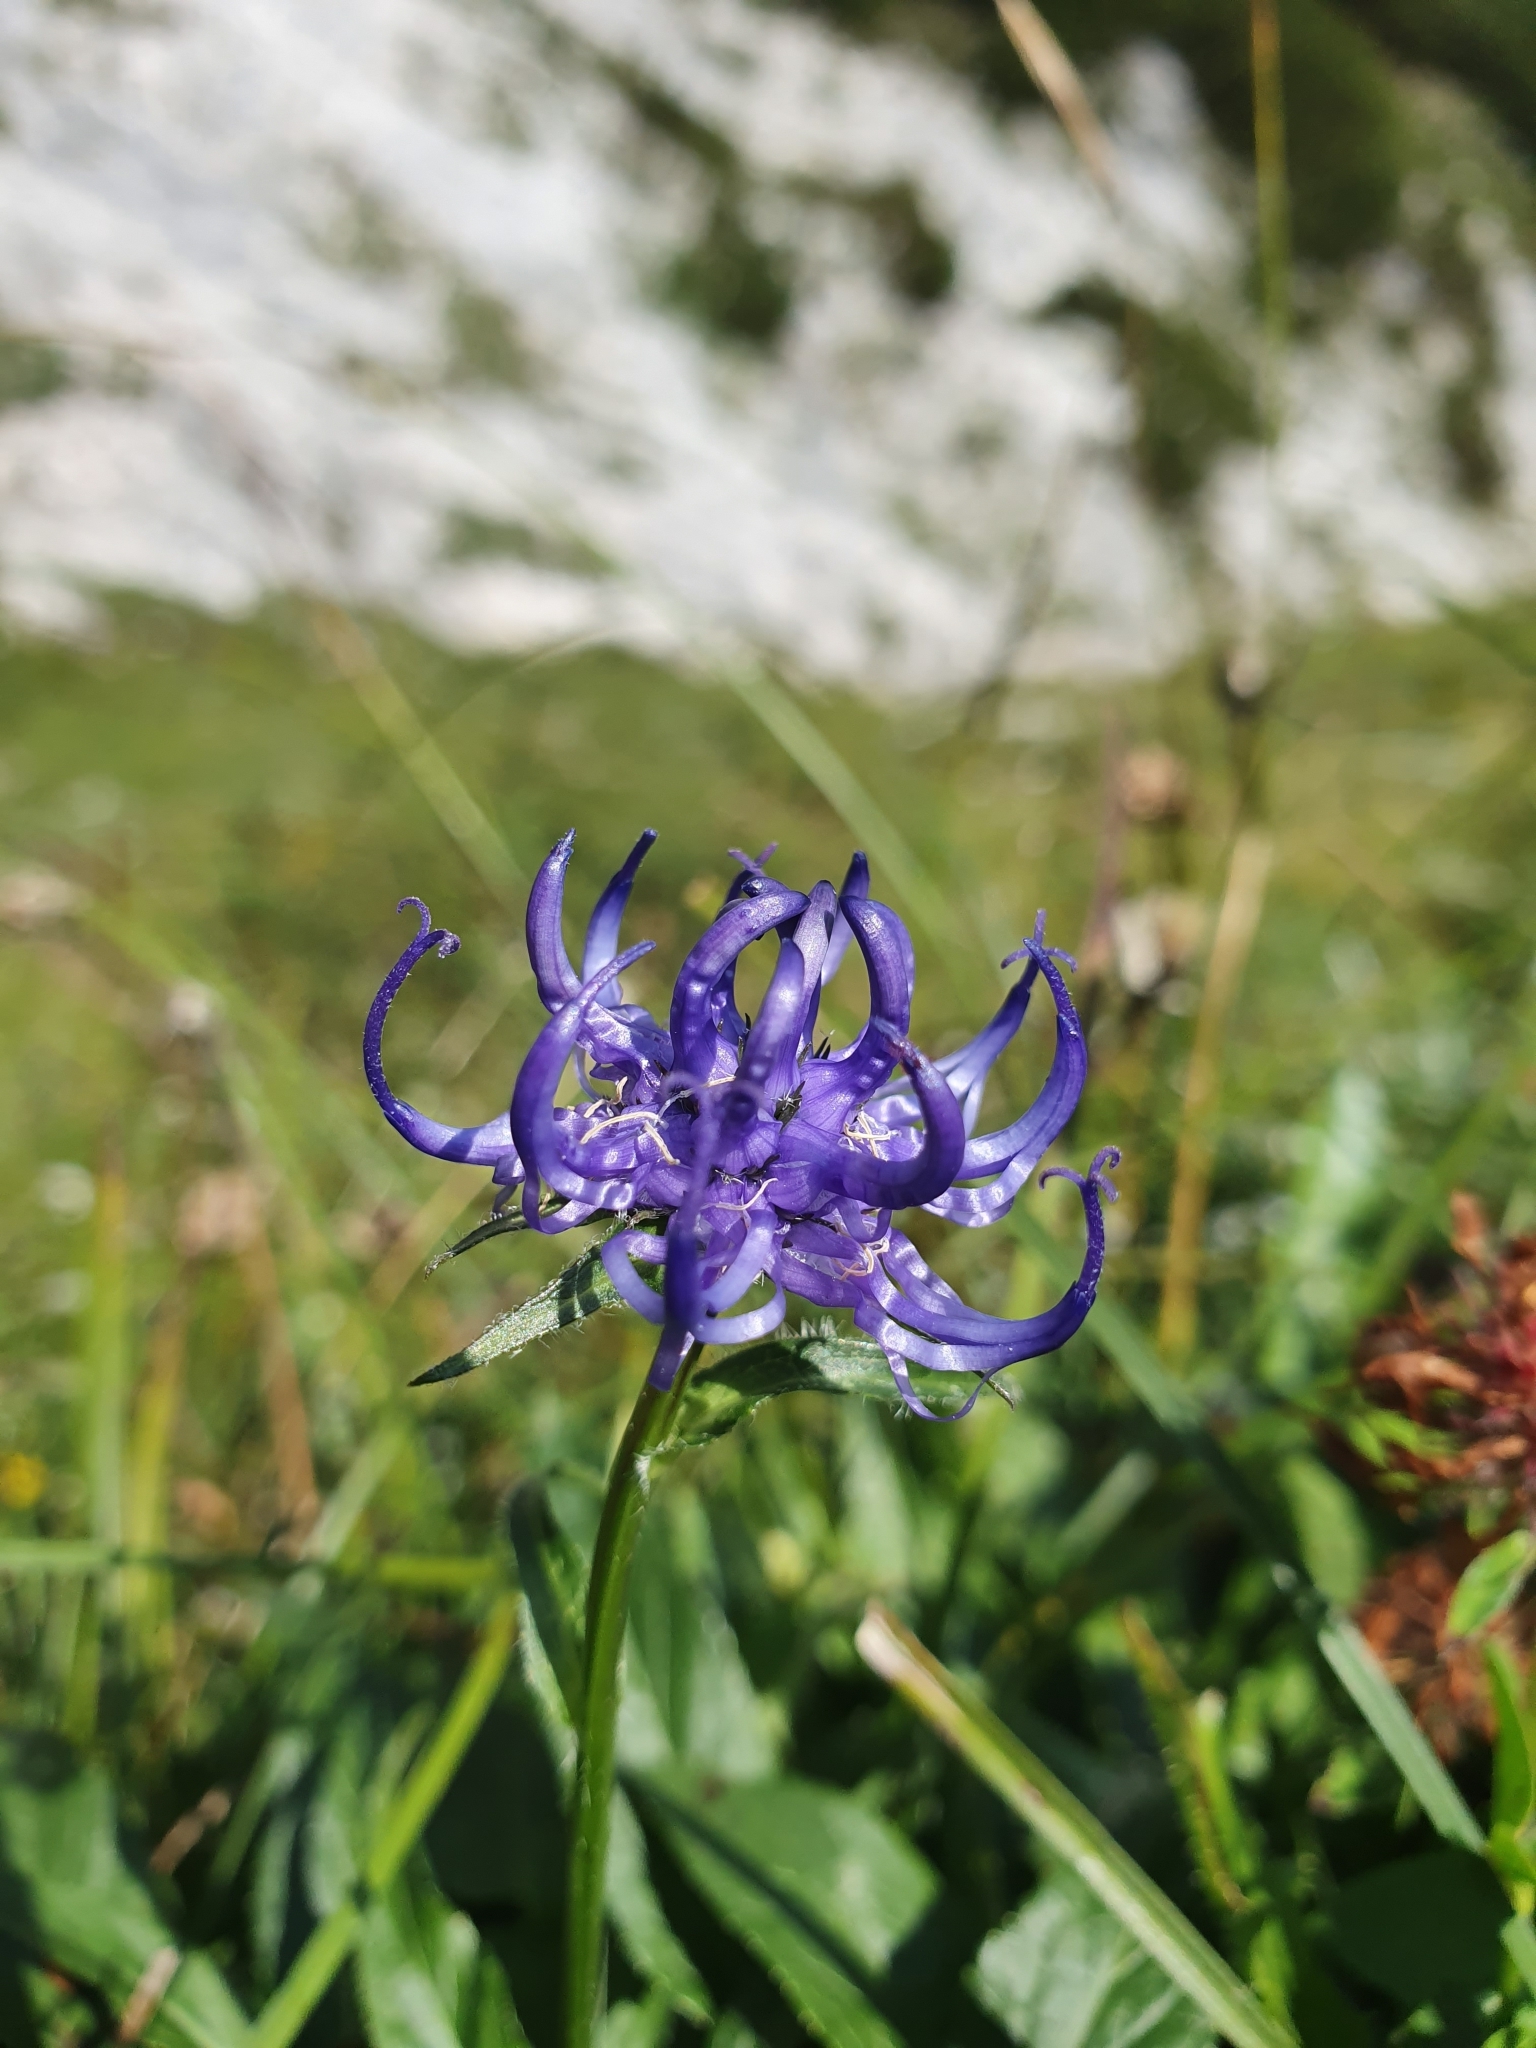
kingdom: Plantae
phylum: Tracheophyta
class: Magnoliopsida
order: Asterales
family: Campanulaceae
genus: Phyteuma
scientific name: Phyteuma orbiculare
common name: Round-headed rampion
